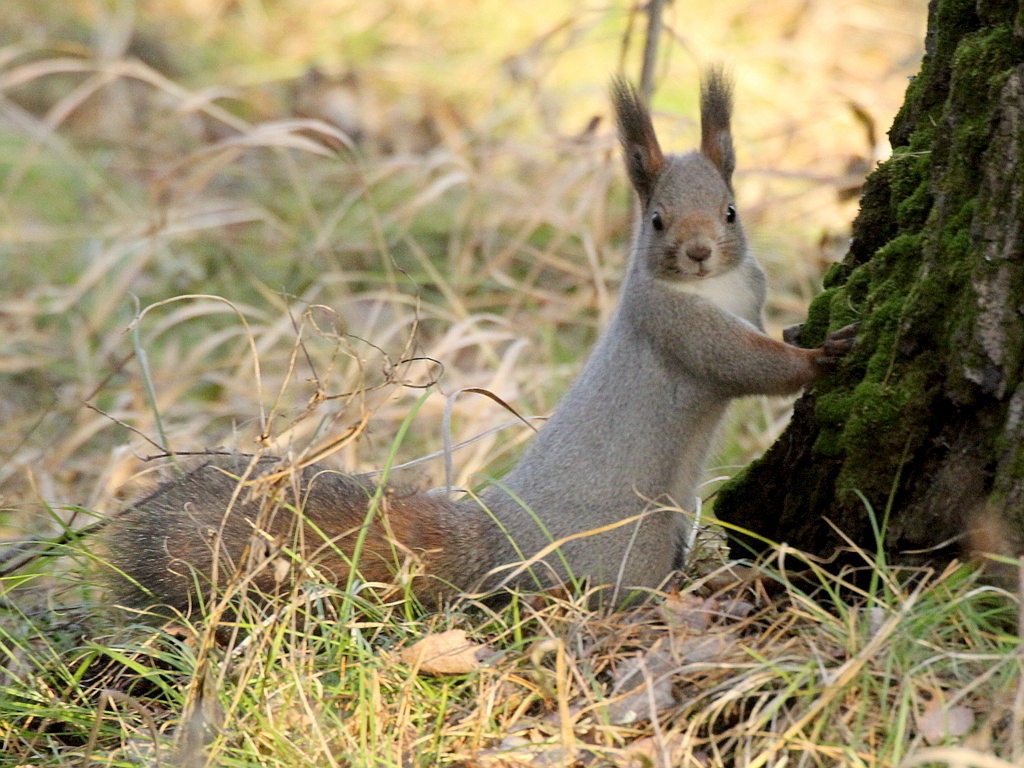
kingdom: Animalia
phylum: Chordata
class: Mammalia
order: Rodentia
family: Sciuridae
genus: Sciurus
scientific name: Sciurus vulgaris
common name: Eurasian red squirrel
